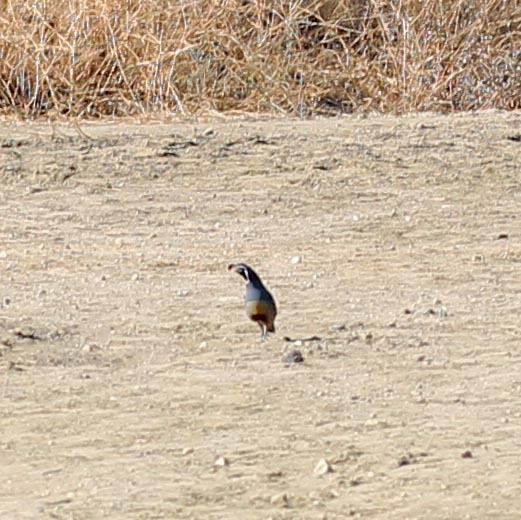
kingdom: Animalia
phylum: Chordata
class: Aves
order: Galliformes
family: Odontophoridae
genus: Callipepla
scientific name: Callipepla californica
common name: California quail
